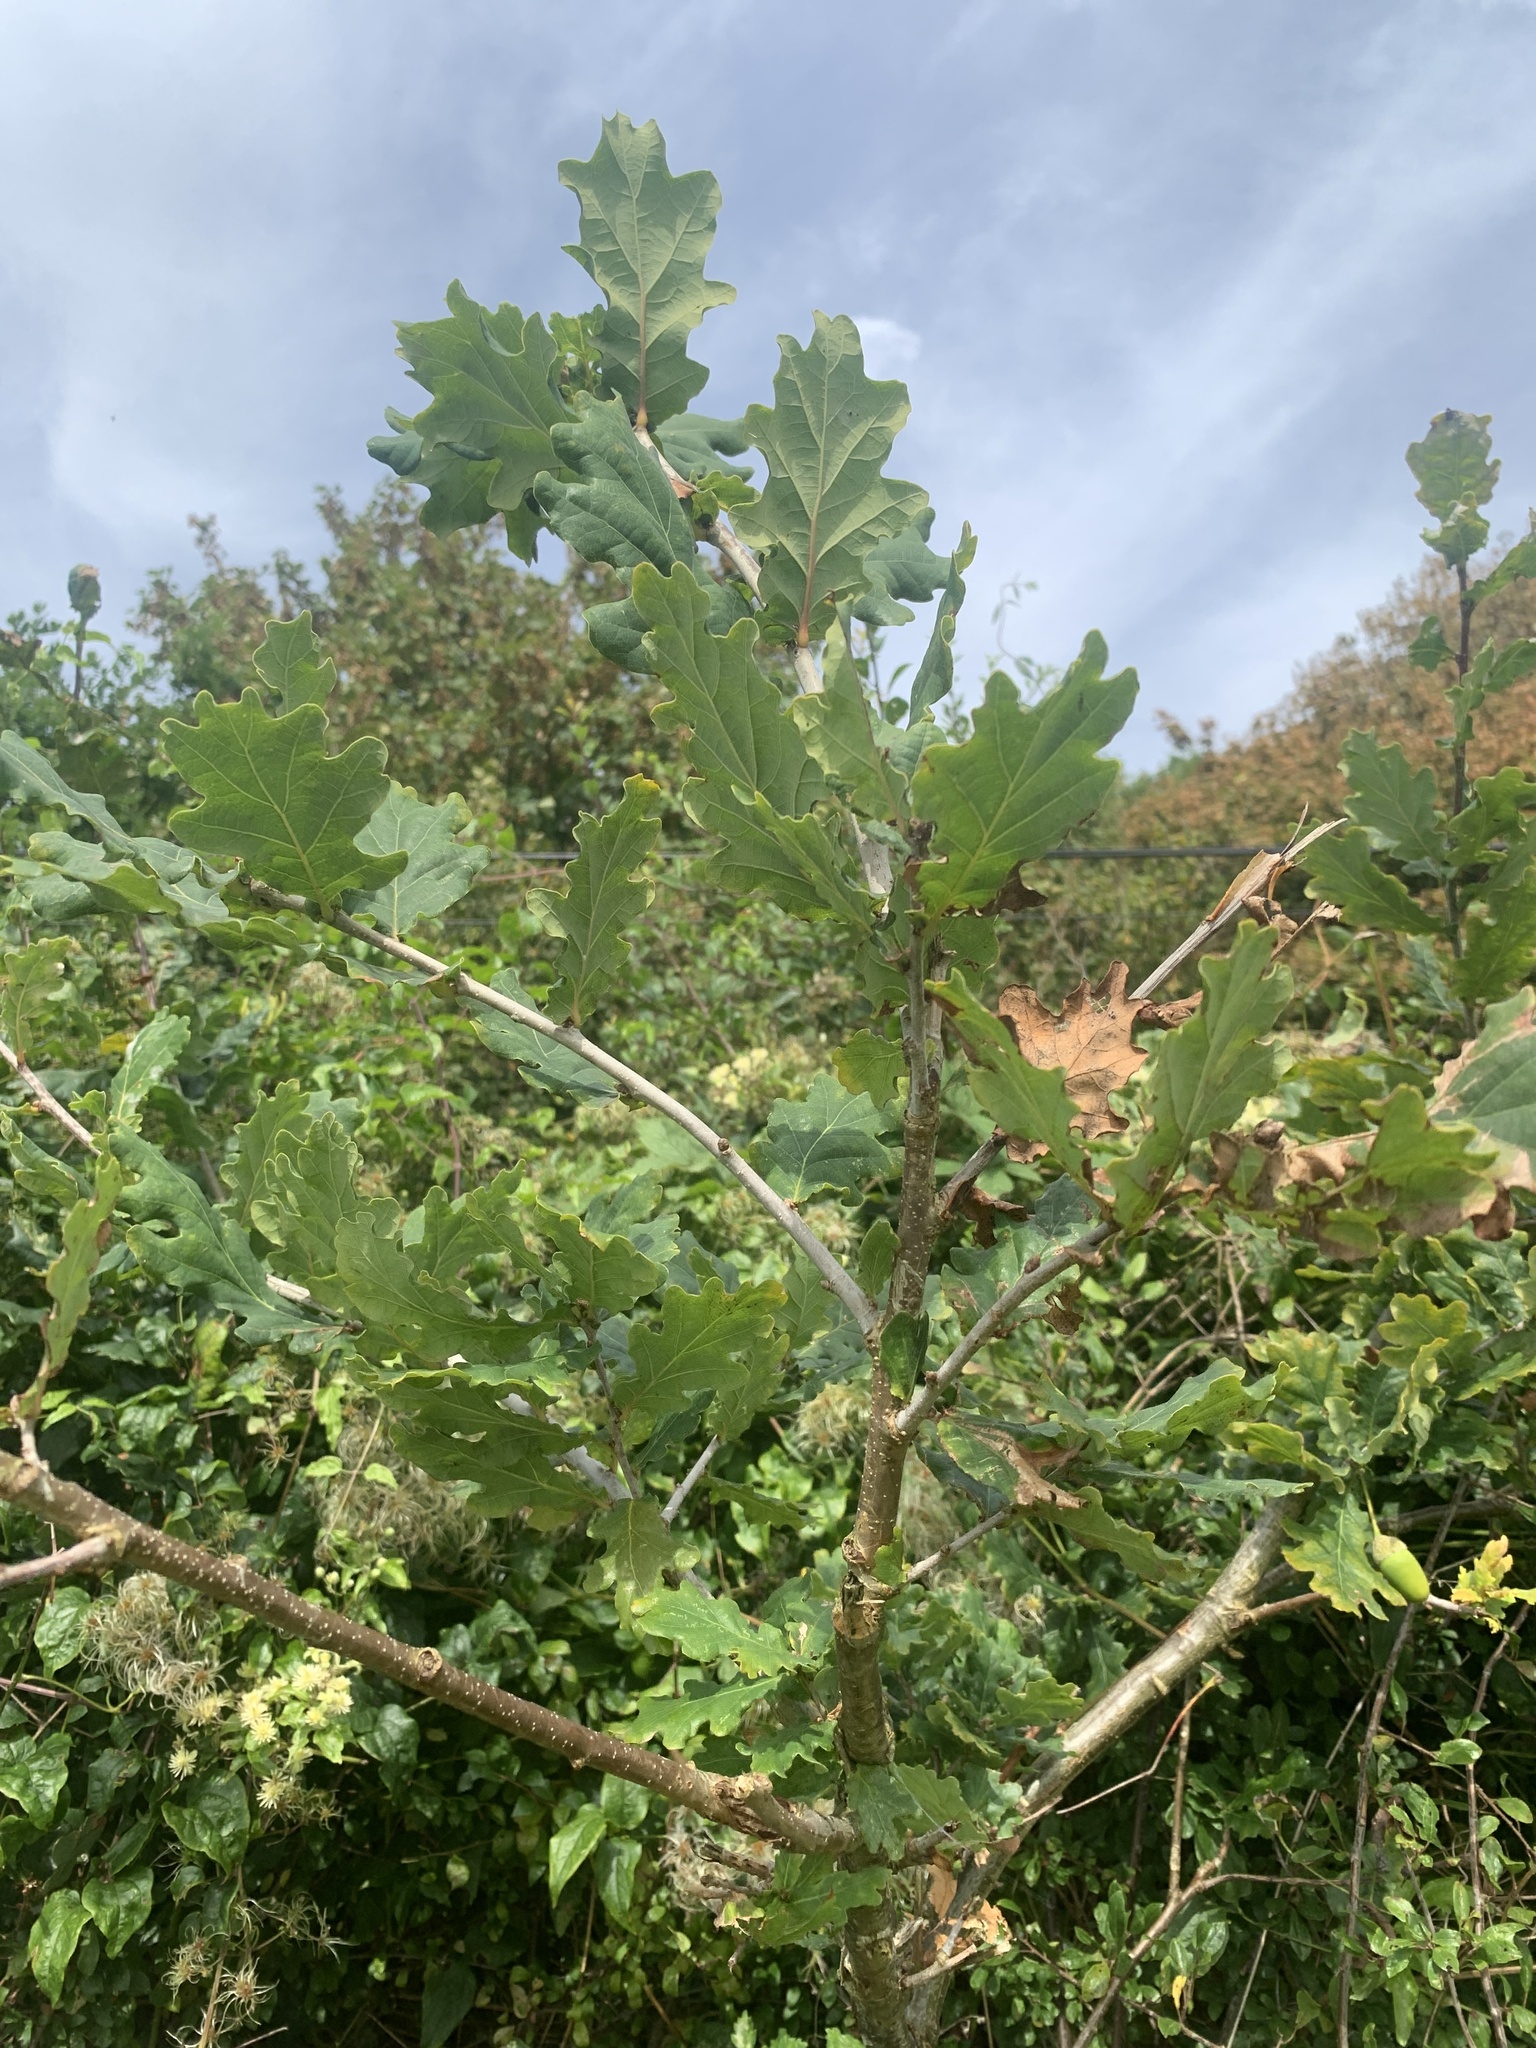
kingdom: Plantae
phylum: Tracheophyta
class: Magnoliopsida
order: Fagales
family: Fagaceae
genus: Quercus
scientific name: Quercus robur
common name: Pedunculate oak
